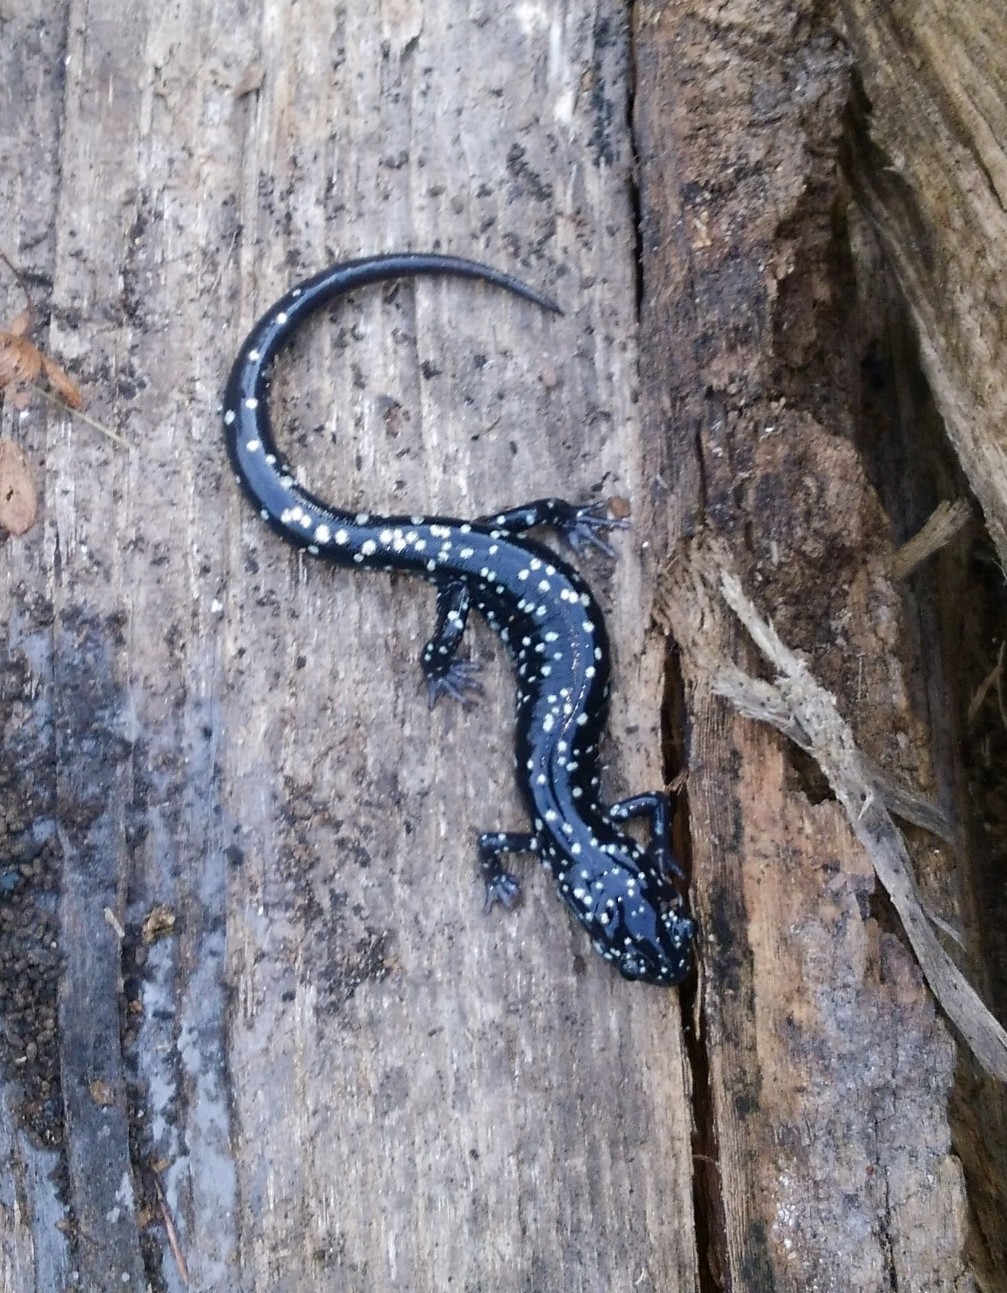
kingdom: Animalia
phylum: Chordata
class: Amphibia
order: Caudata
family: Plethodontidae
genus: Plethodon
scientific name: Plethodon glutinosus
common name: Northern slimy salamander
